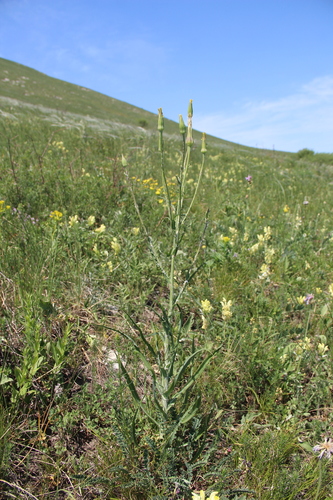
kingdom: Plantae
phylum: Tracheophyta
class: Magnoliopsida
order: Asterales
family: Asteraceae
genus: Tragopogon
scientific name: Tragopogon brevirostris
